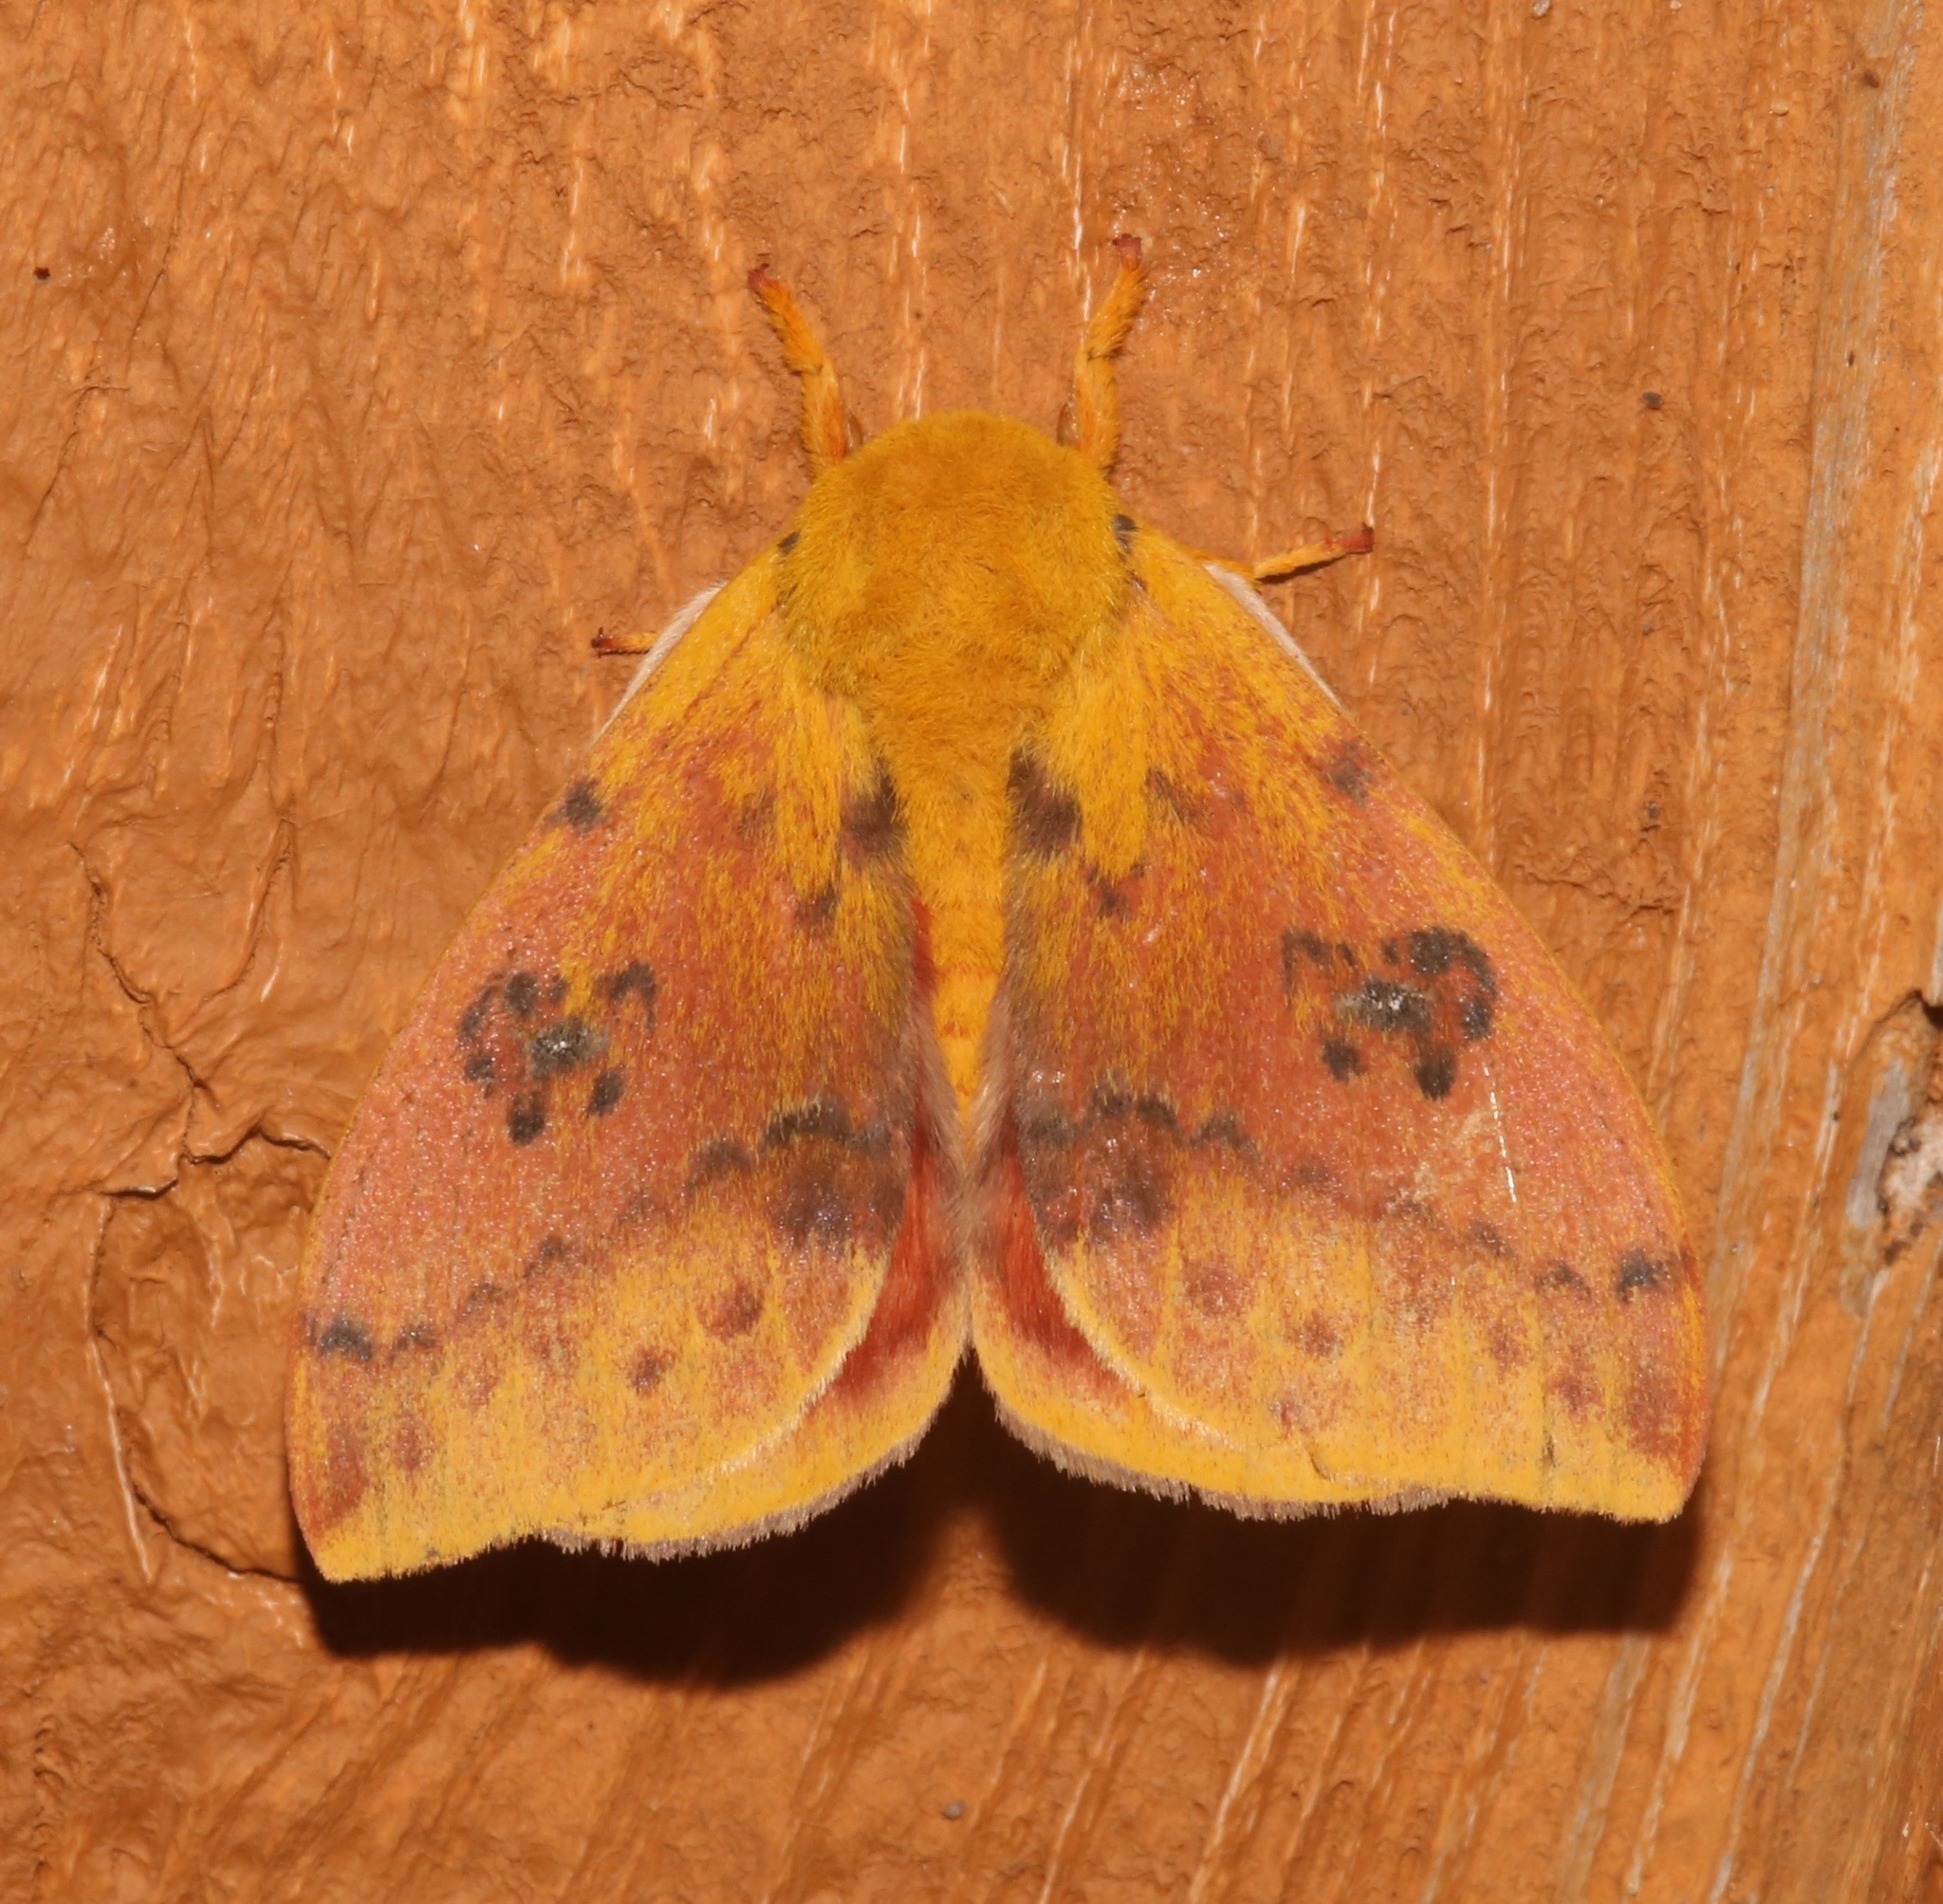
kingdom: Animalia
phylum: Arthropoda
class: Insecta
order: Lepidoptera
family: Saturniidae
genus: Automeris
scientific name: Automeris io
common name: Io moth
